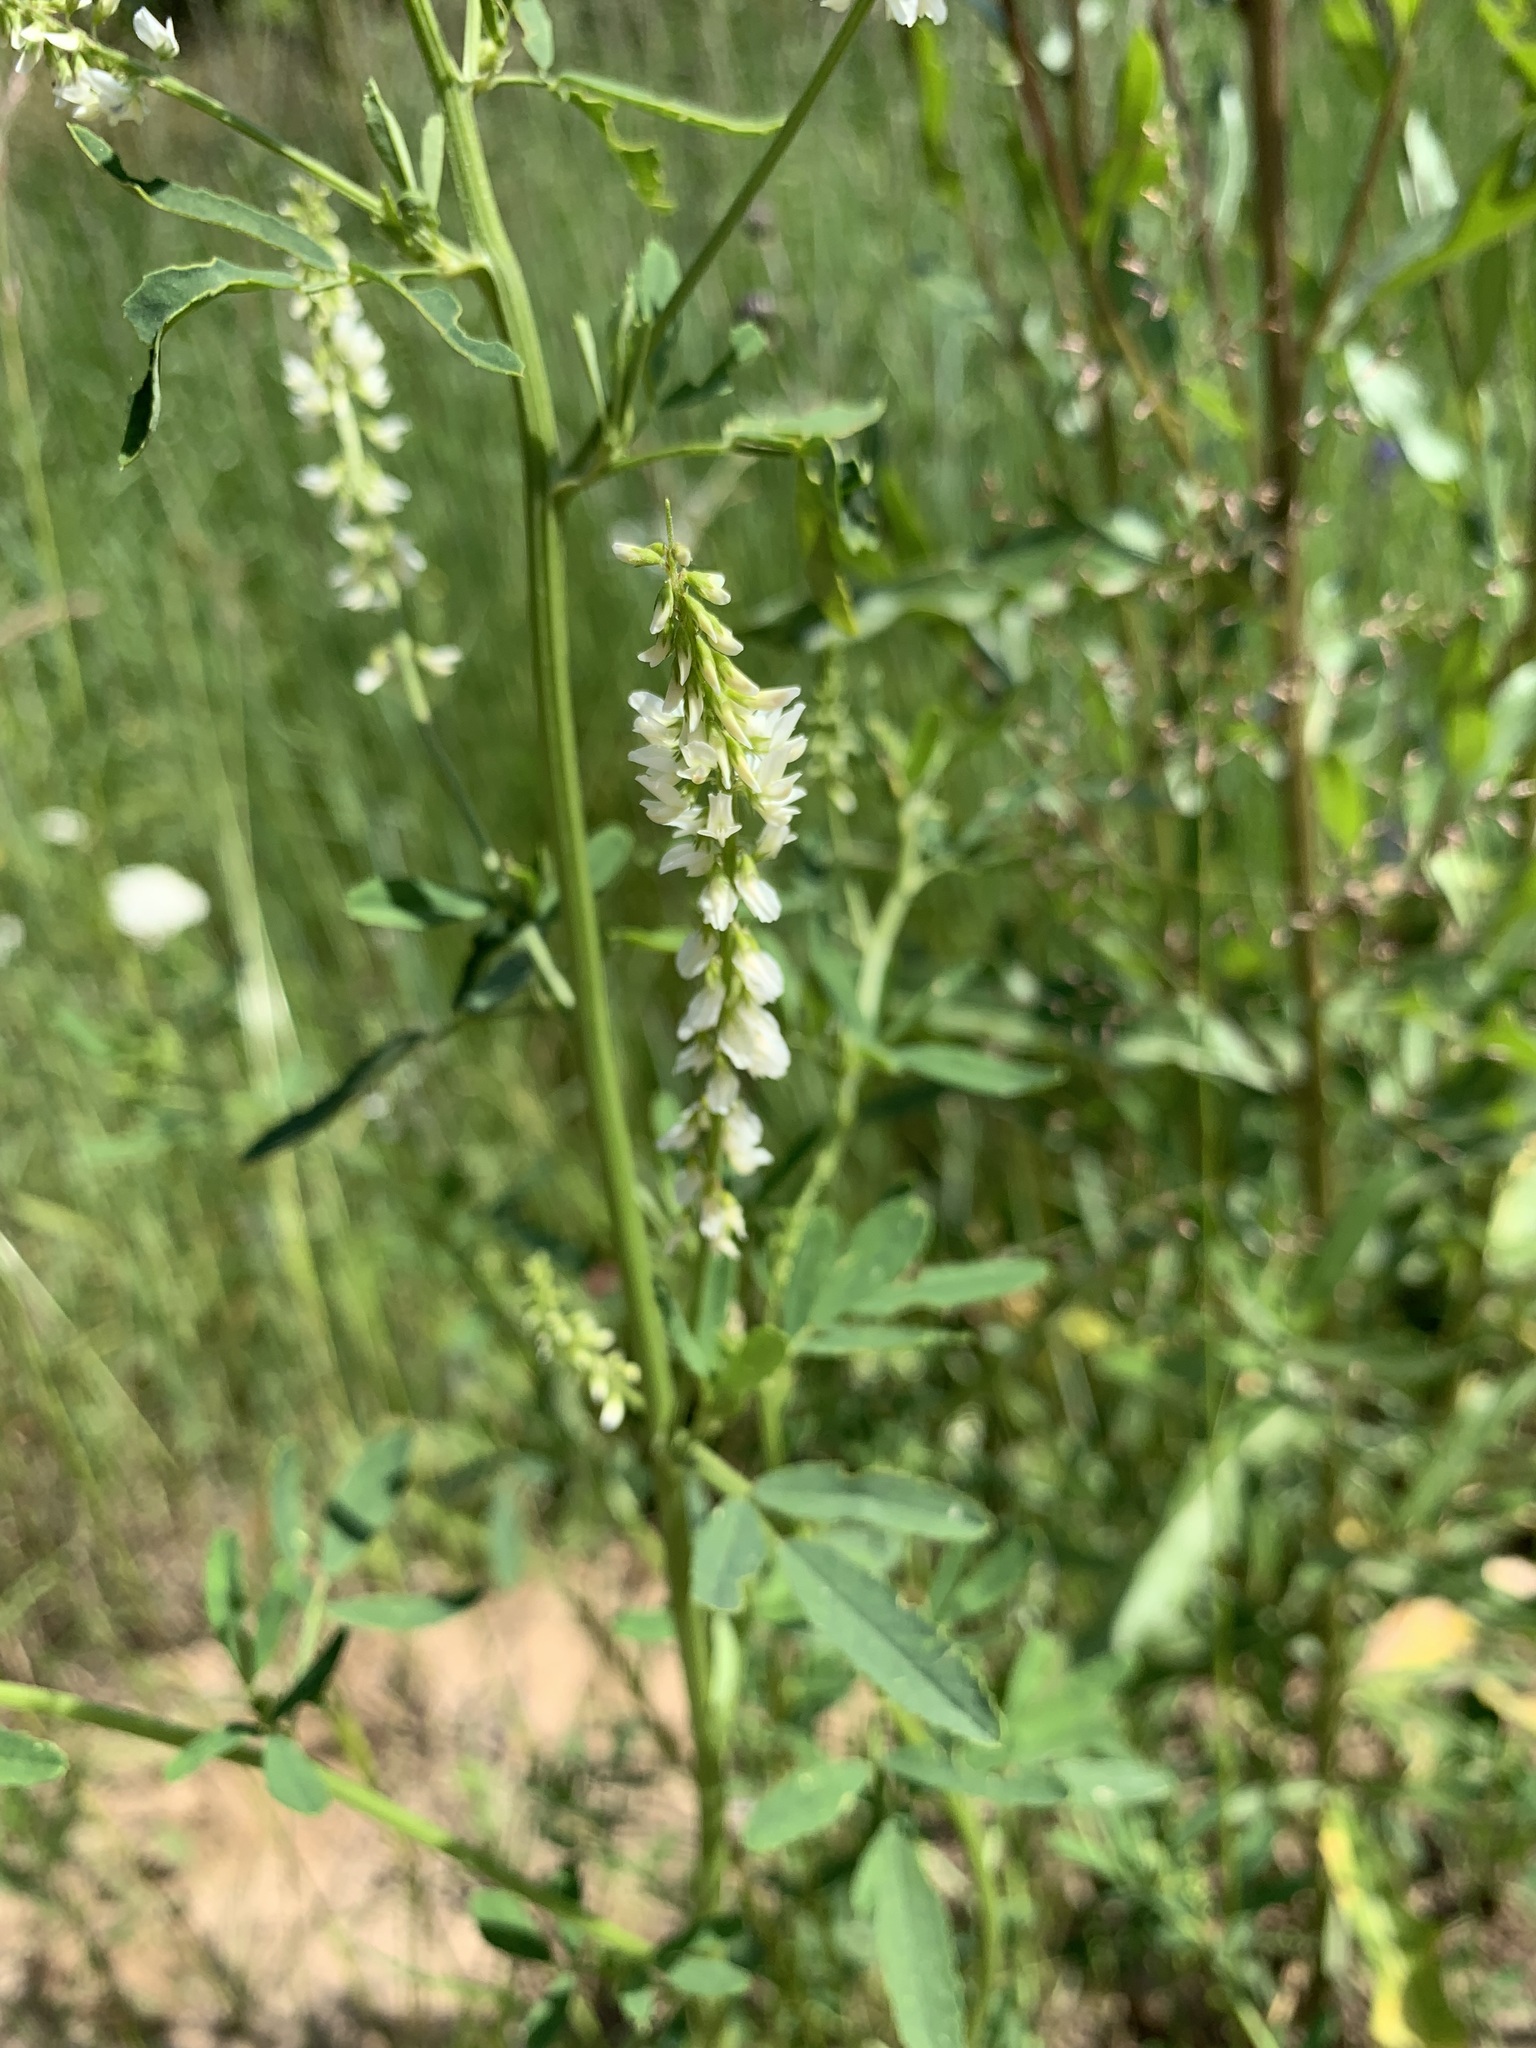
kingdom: Plantae
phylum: Tracheophyta
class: Magnoliopsida
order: Fabales
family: Fabaceae
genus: Melilotus
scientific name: Melilotus albus
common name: White melilot
